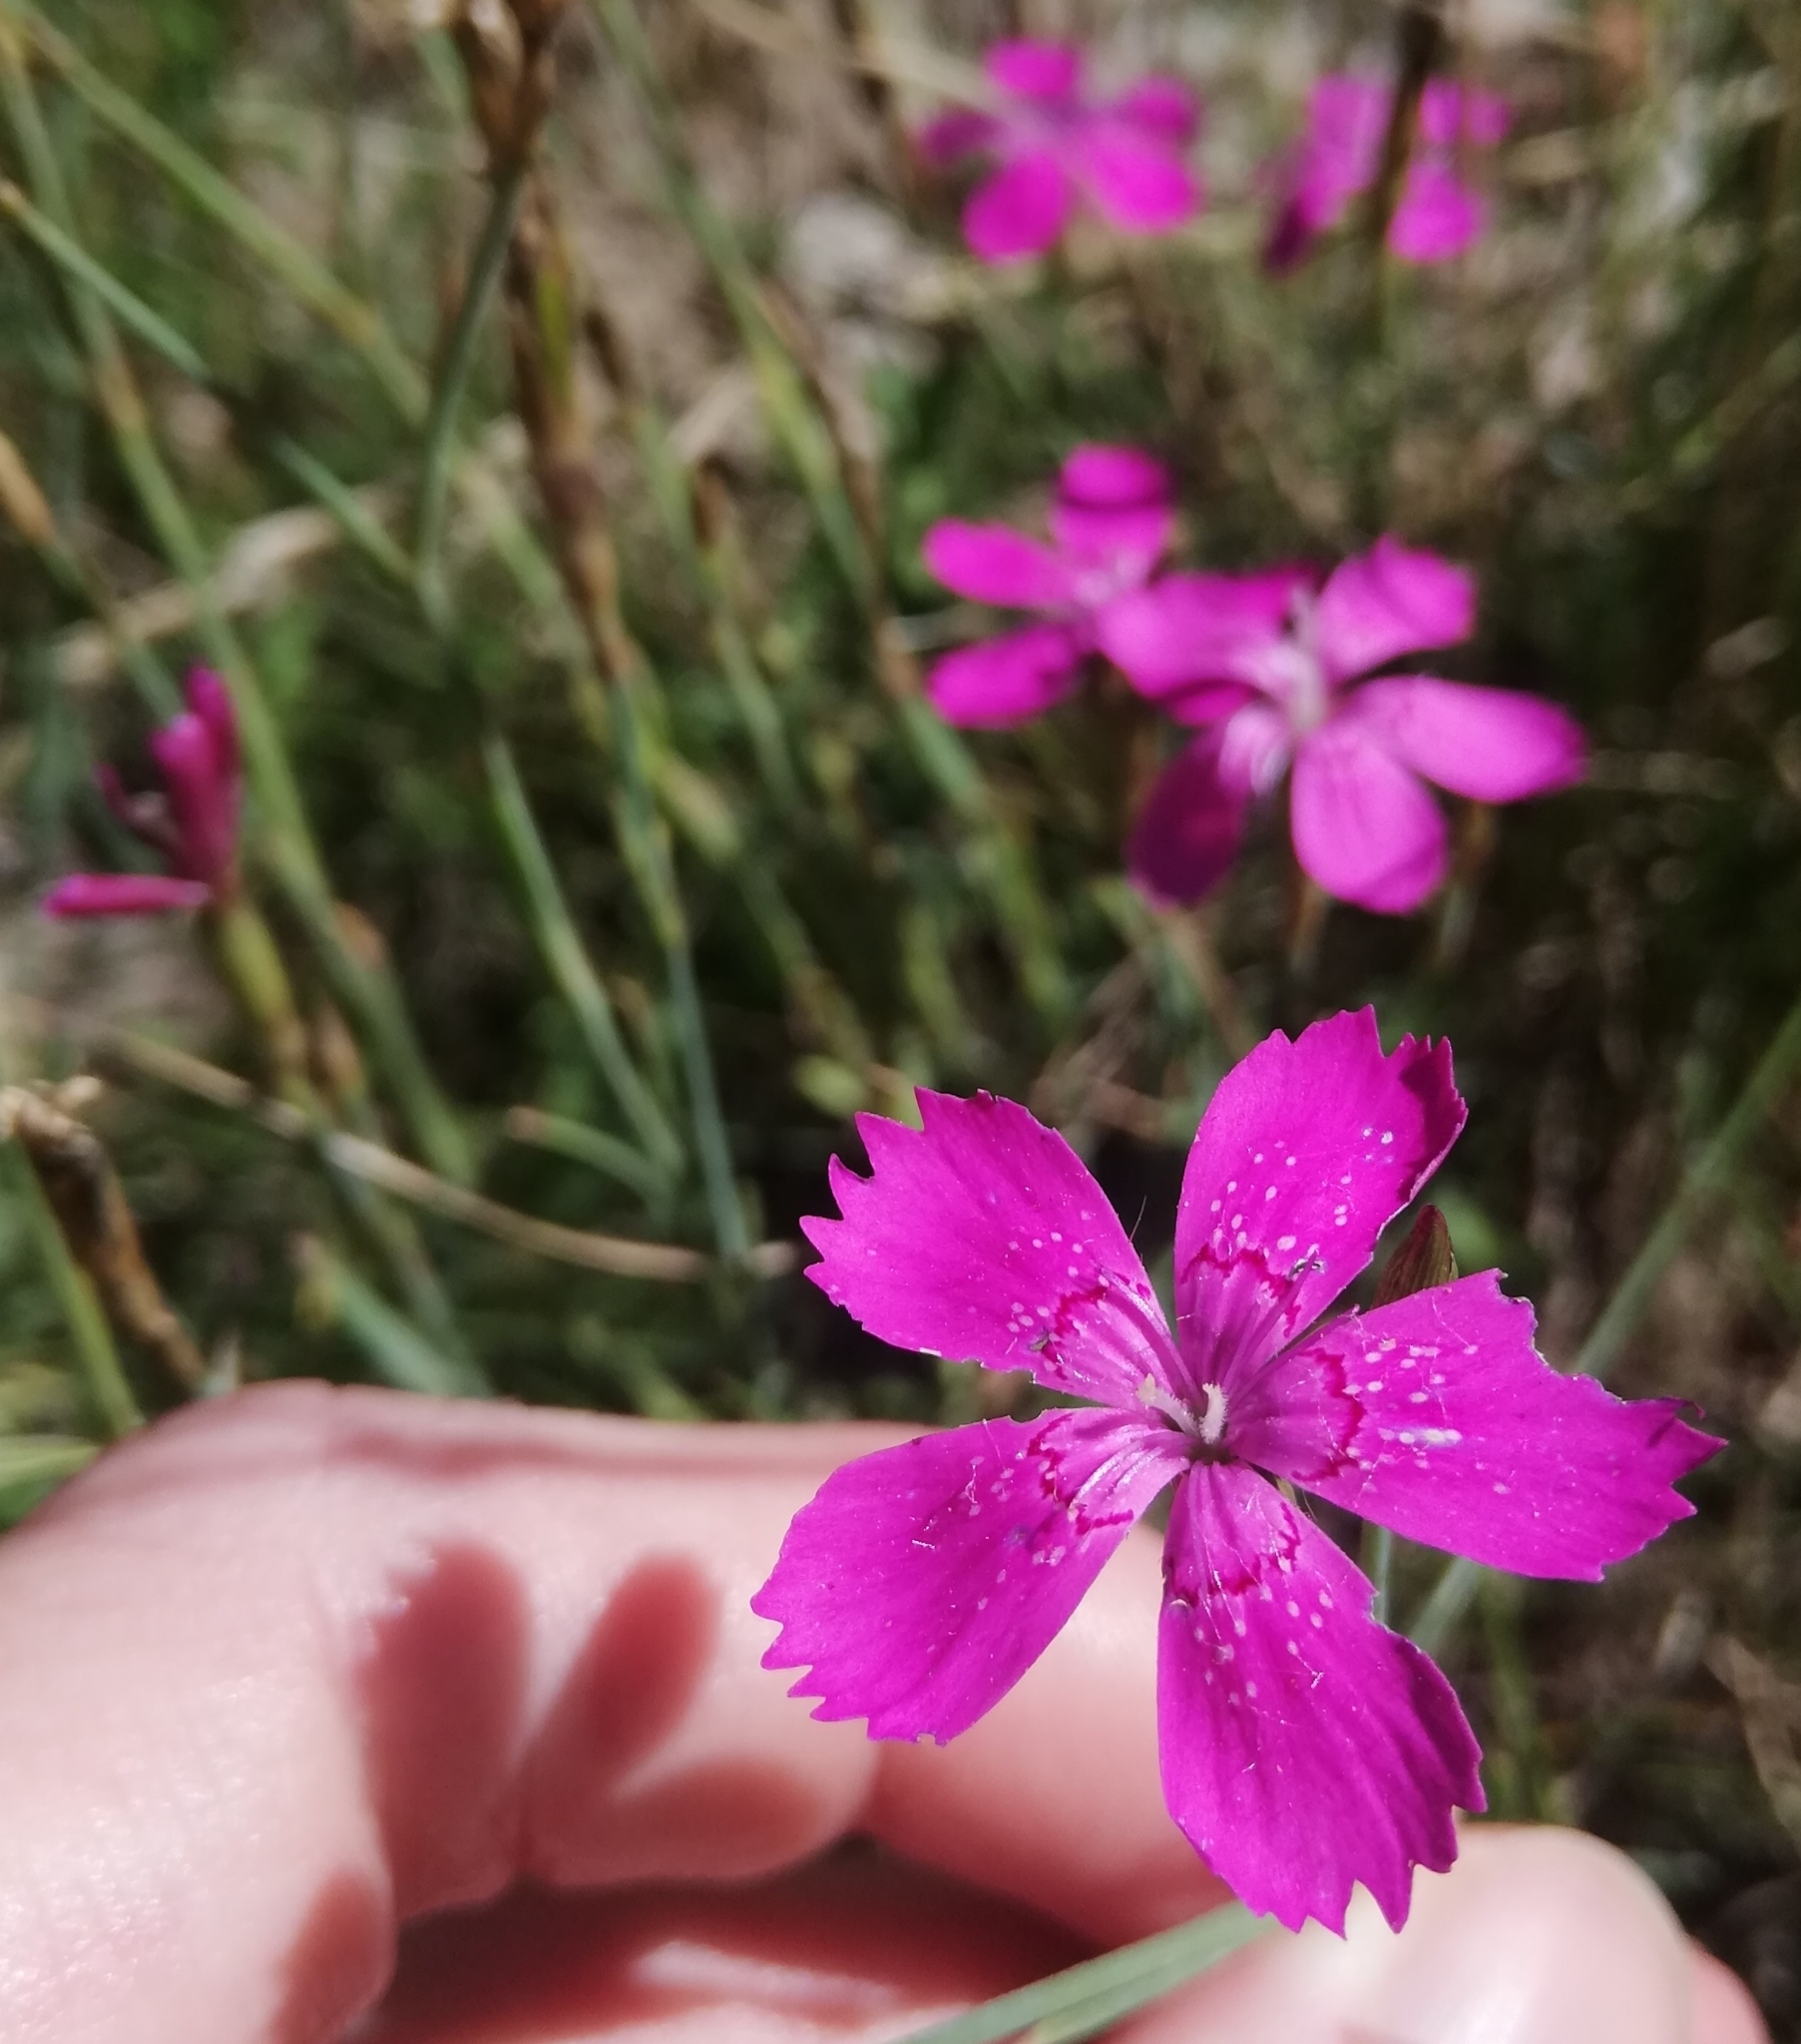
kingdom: Plantae
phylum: Tracheophyta
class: Magnoliopsida
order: Caryophyllales
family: Caryophyllaceae
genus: Dianthus
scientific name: Dianthus deltoides
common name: Maiden pink
